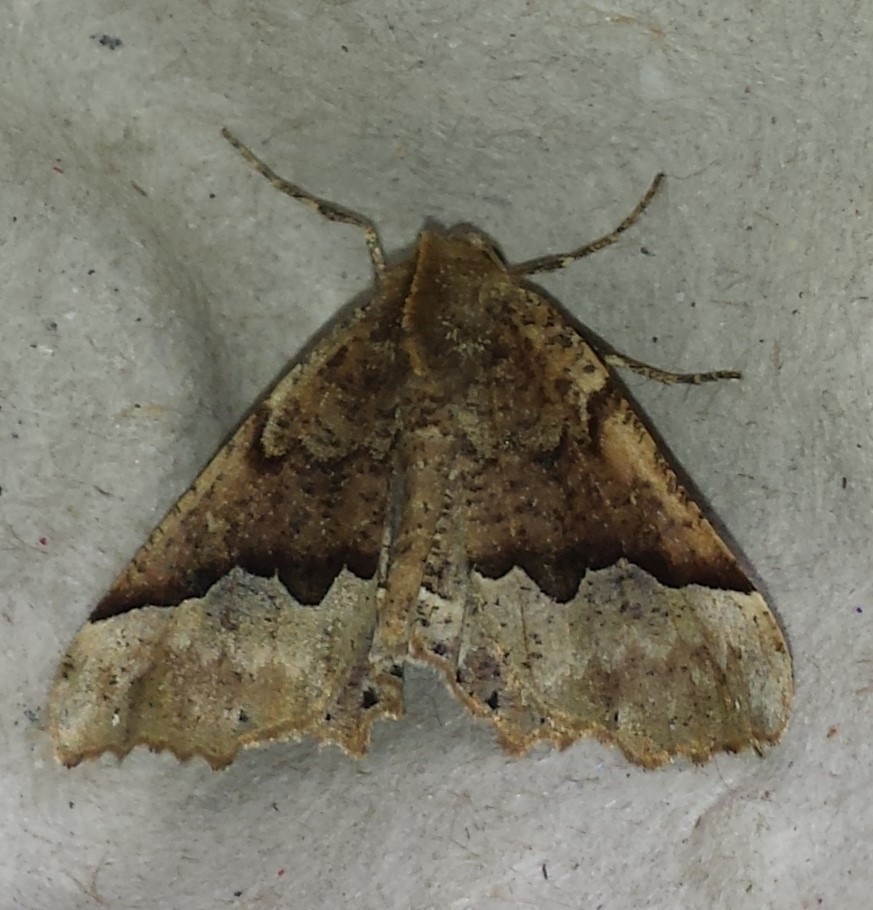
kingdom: Animalia
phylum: Arthropoda
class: Insecta
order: Lepidoptera
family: Geometridae
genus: Pero
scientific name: Pero morrisonaria
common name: Morrison's pero
